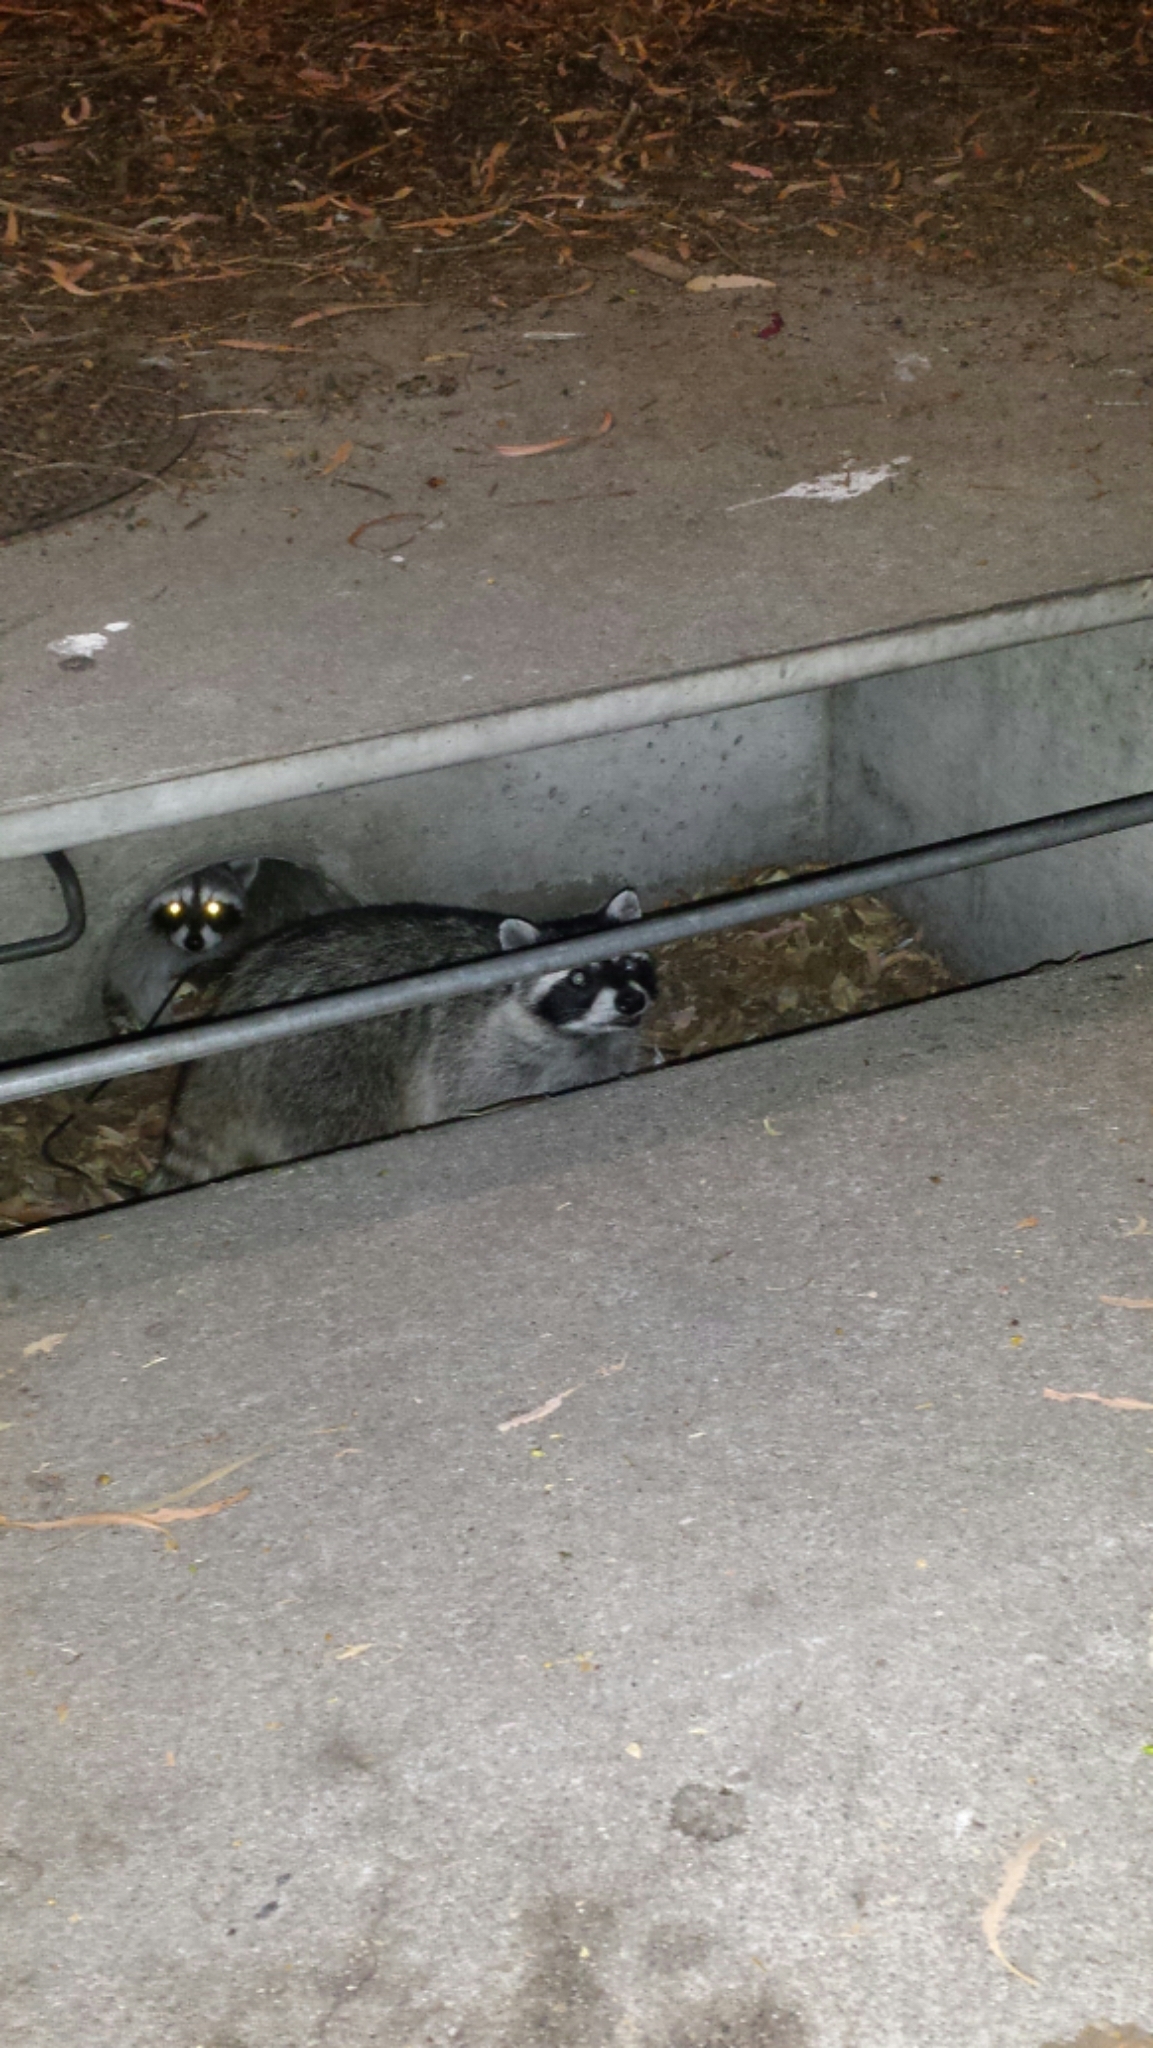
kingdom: Animalia
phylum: Chordata
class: Mammalia
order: Carnivora
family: Procyonidae
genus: Procyon
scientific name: Procyon lotor
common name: Raccoon
